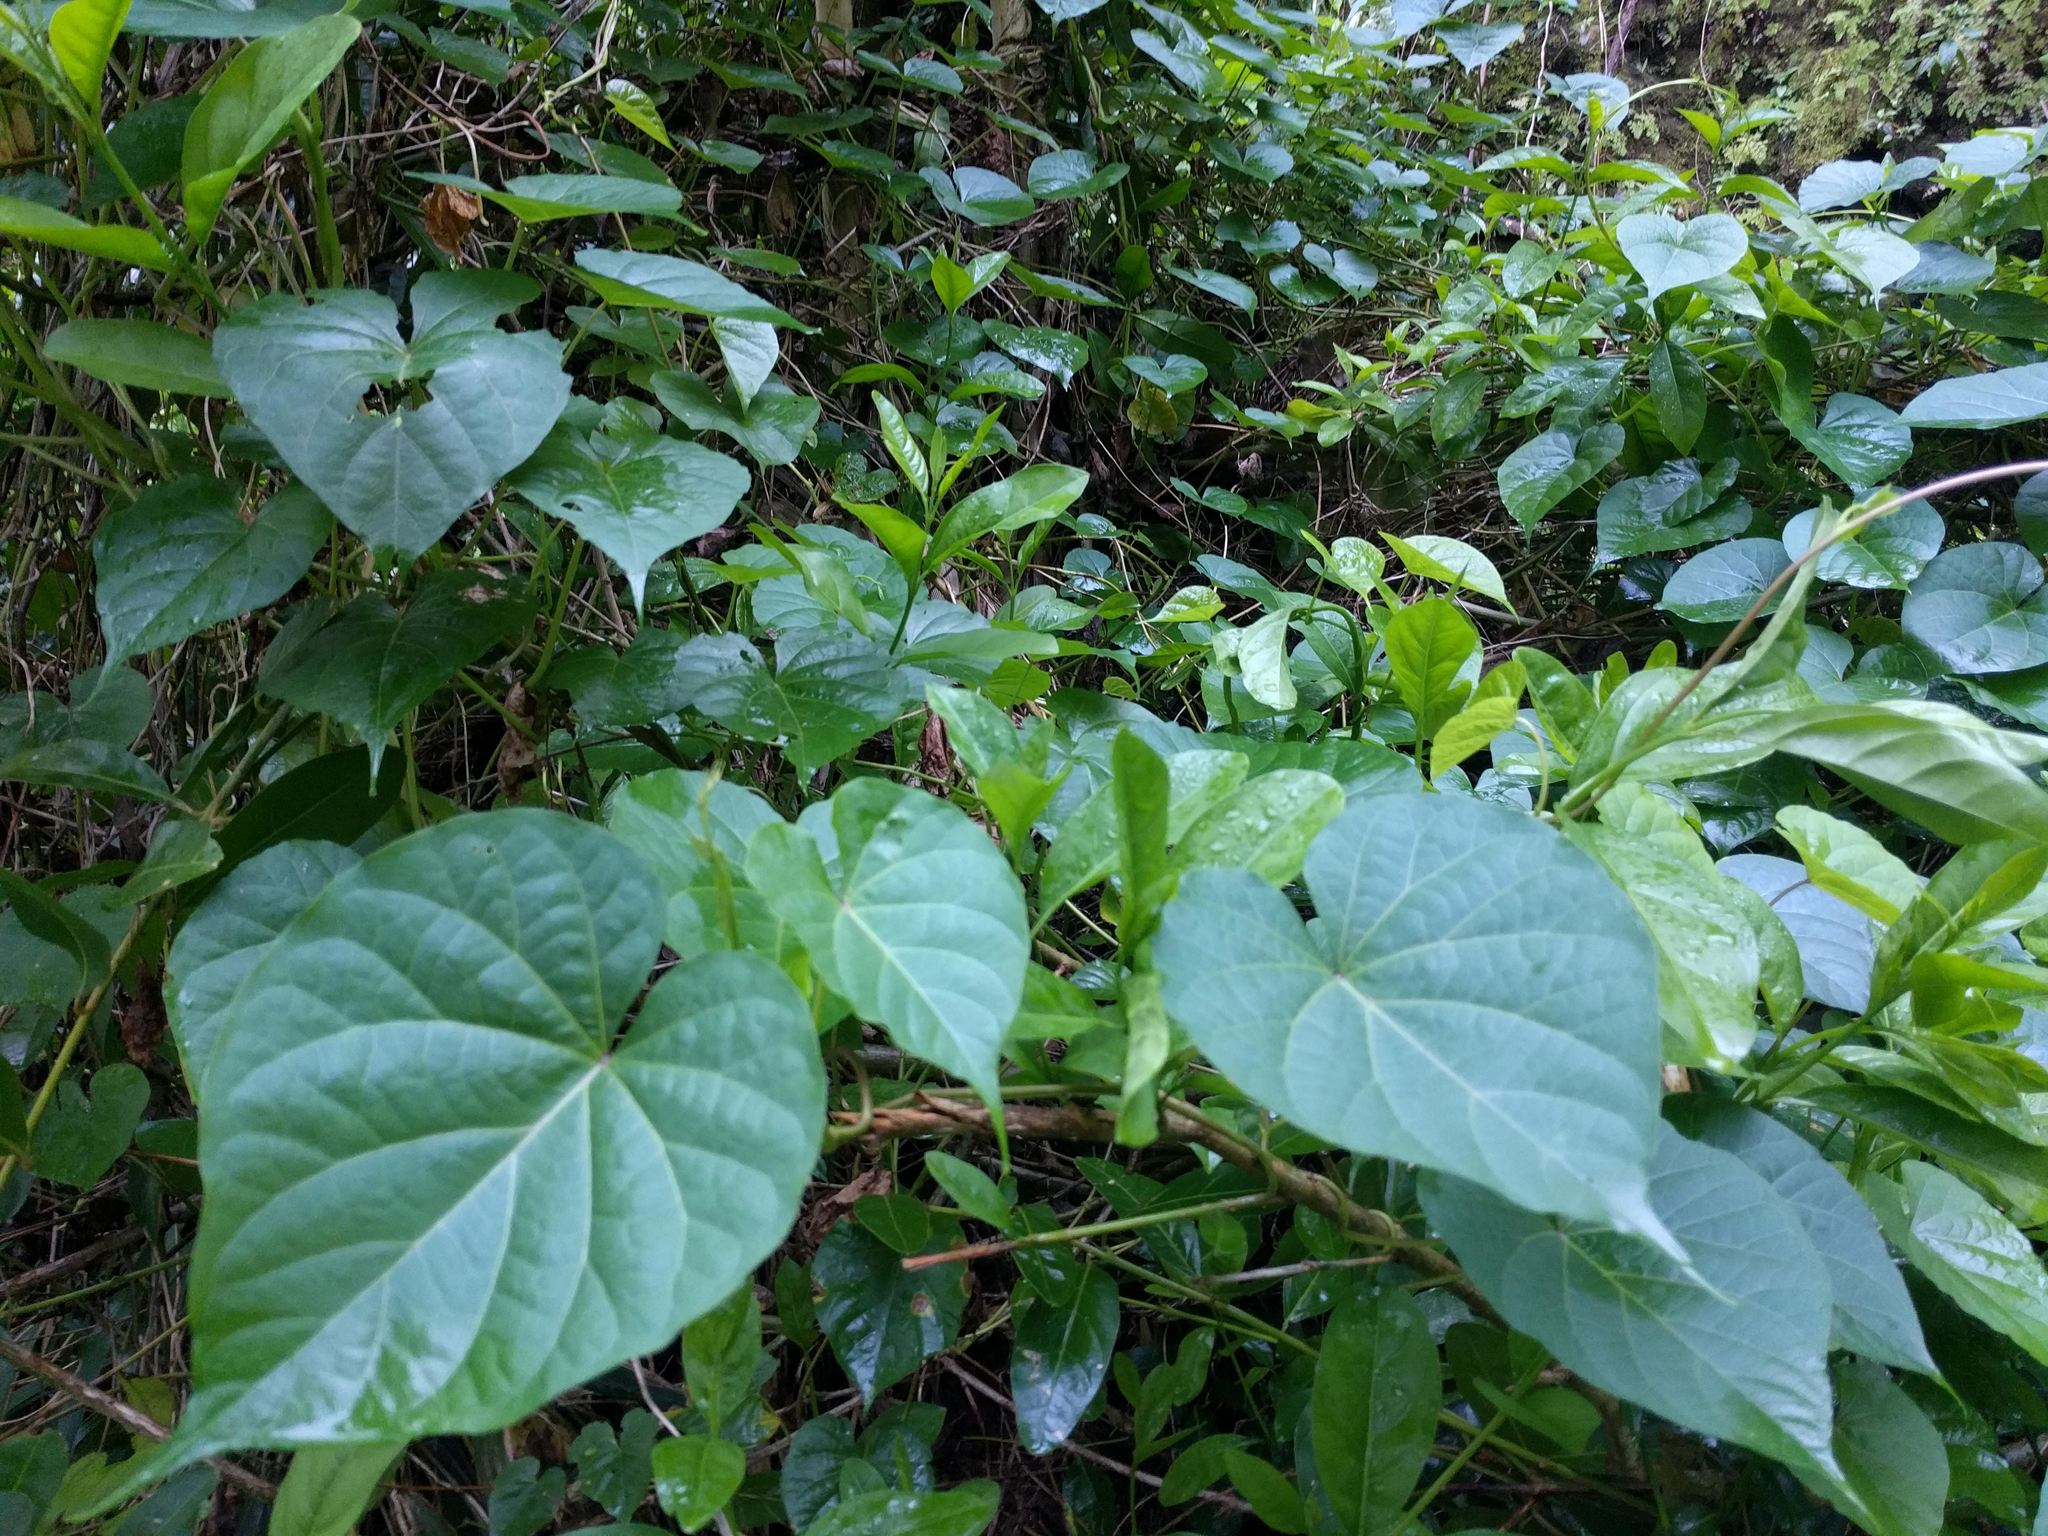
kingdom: Plantae
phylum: Tracheophyta
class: Magnoliopsida
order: Solanales
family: Convolvulaceae
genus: Ipomoea
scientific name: Ipomoea indica
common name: Blue dawnflower
